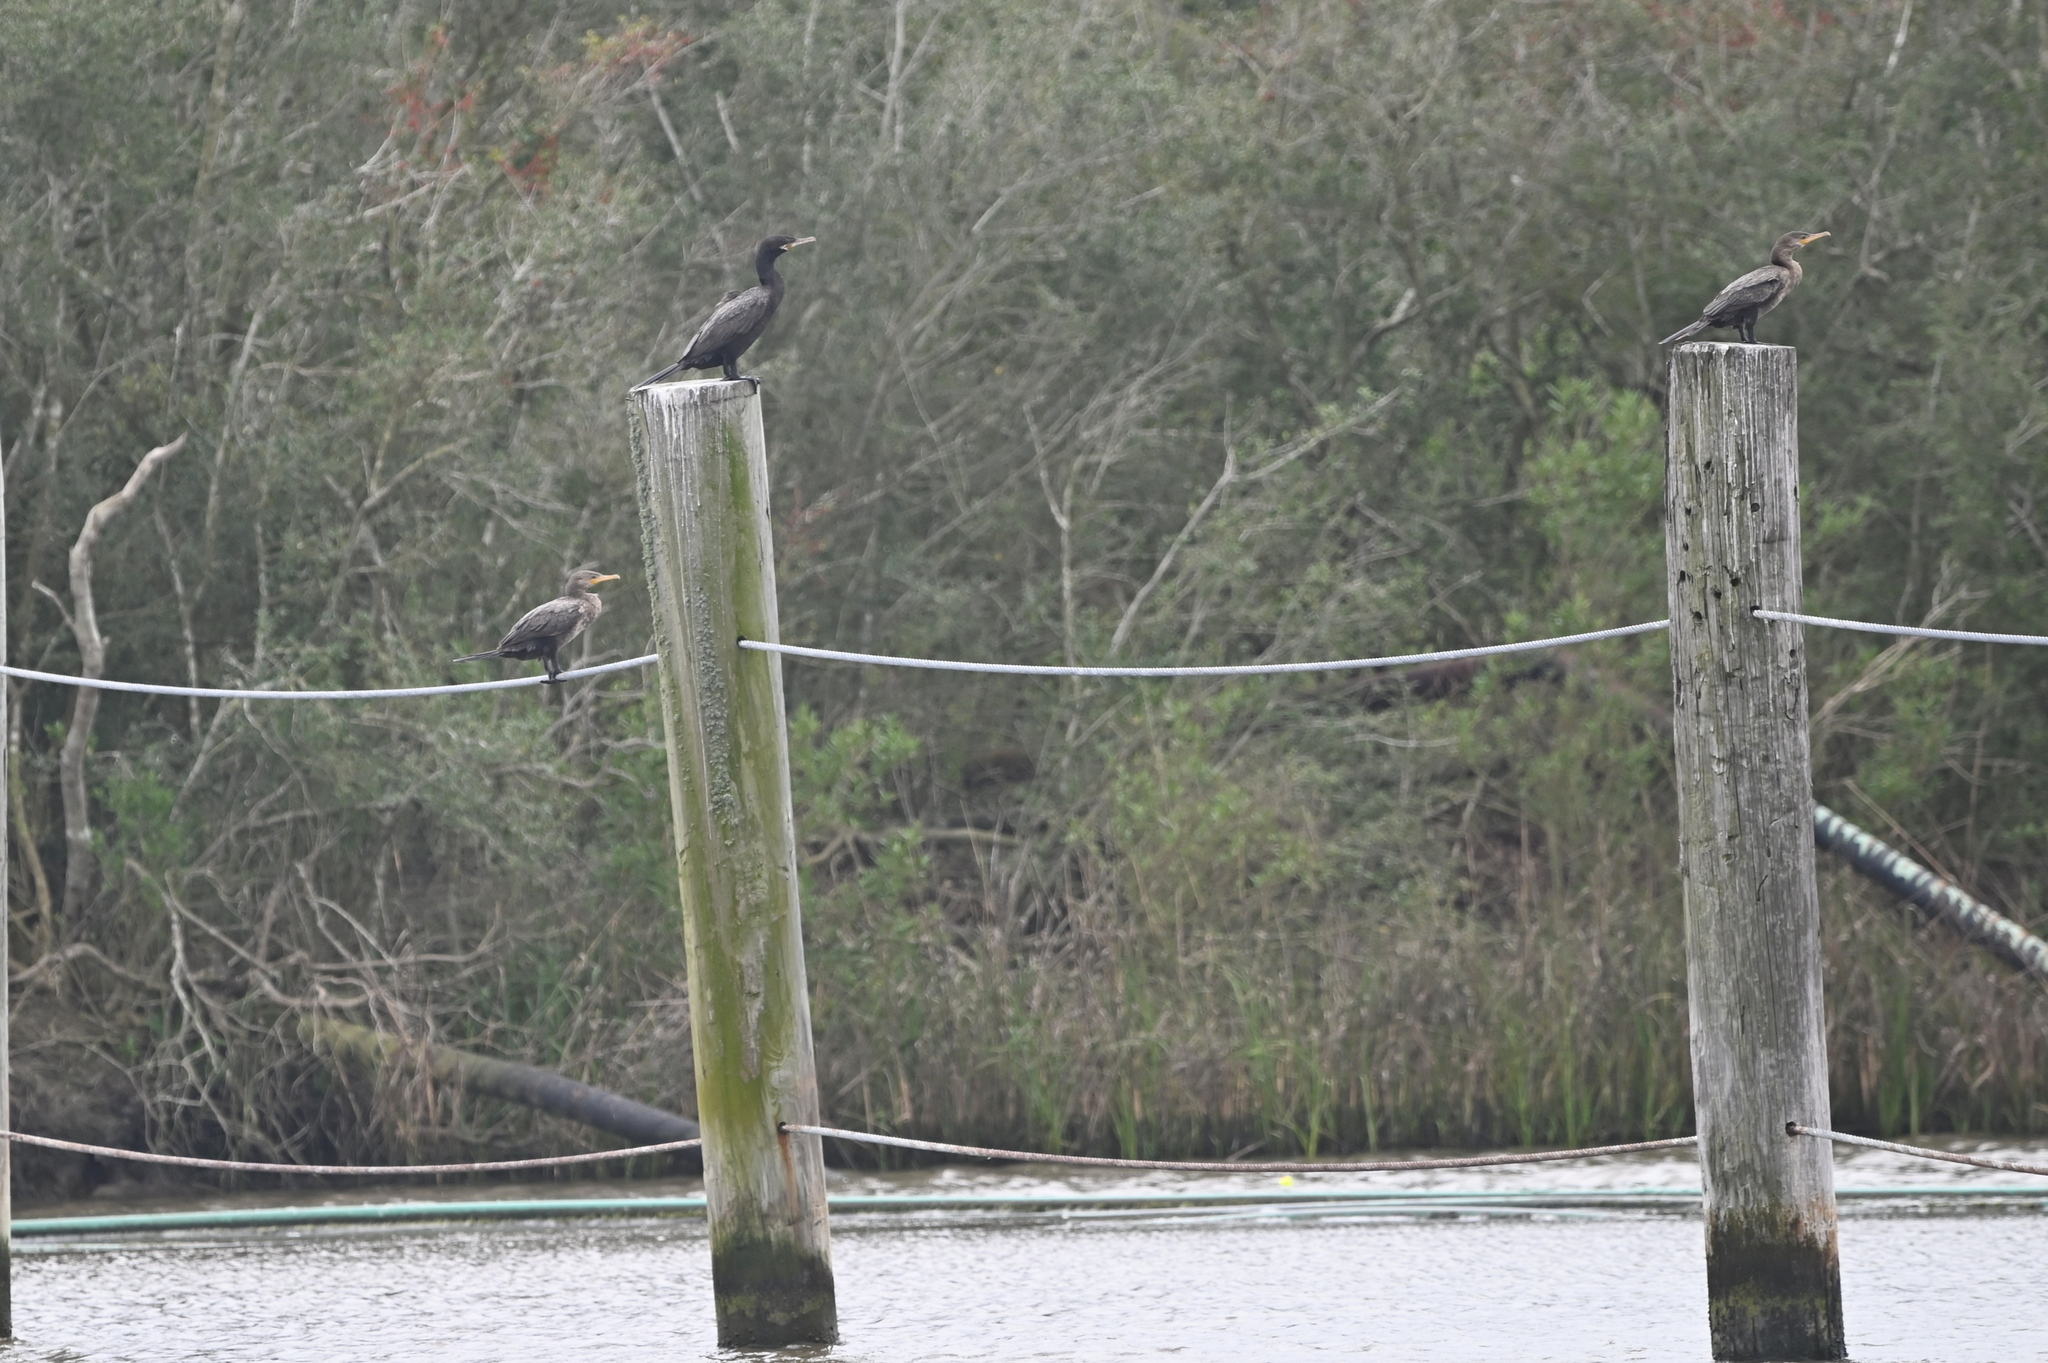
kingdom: Animalia
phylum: Chordata
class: Aves
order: Suliformes
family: Phalacrocoracidae
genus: Phalacrocorax
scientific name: Phalacrocorax brasilianus
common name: Neotropic cormorant
